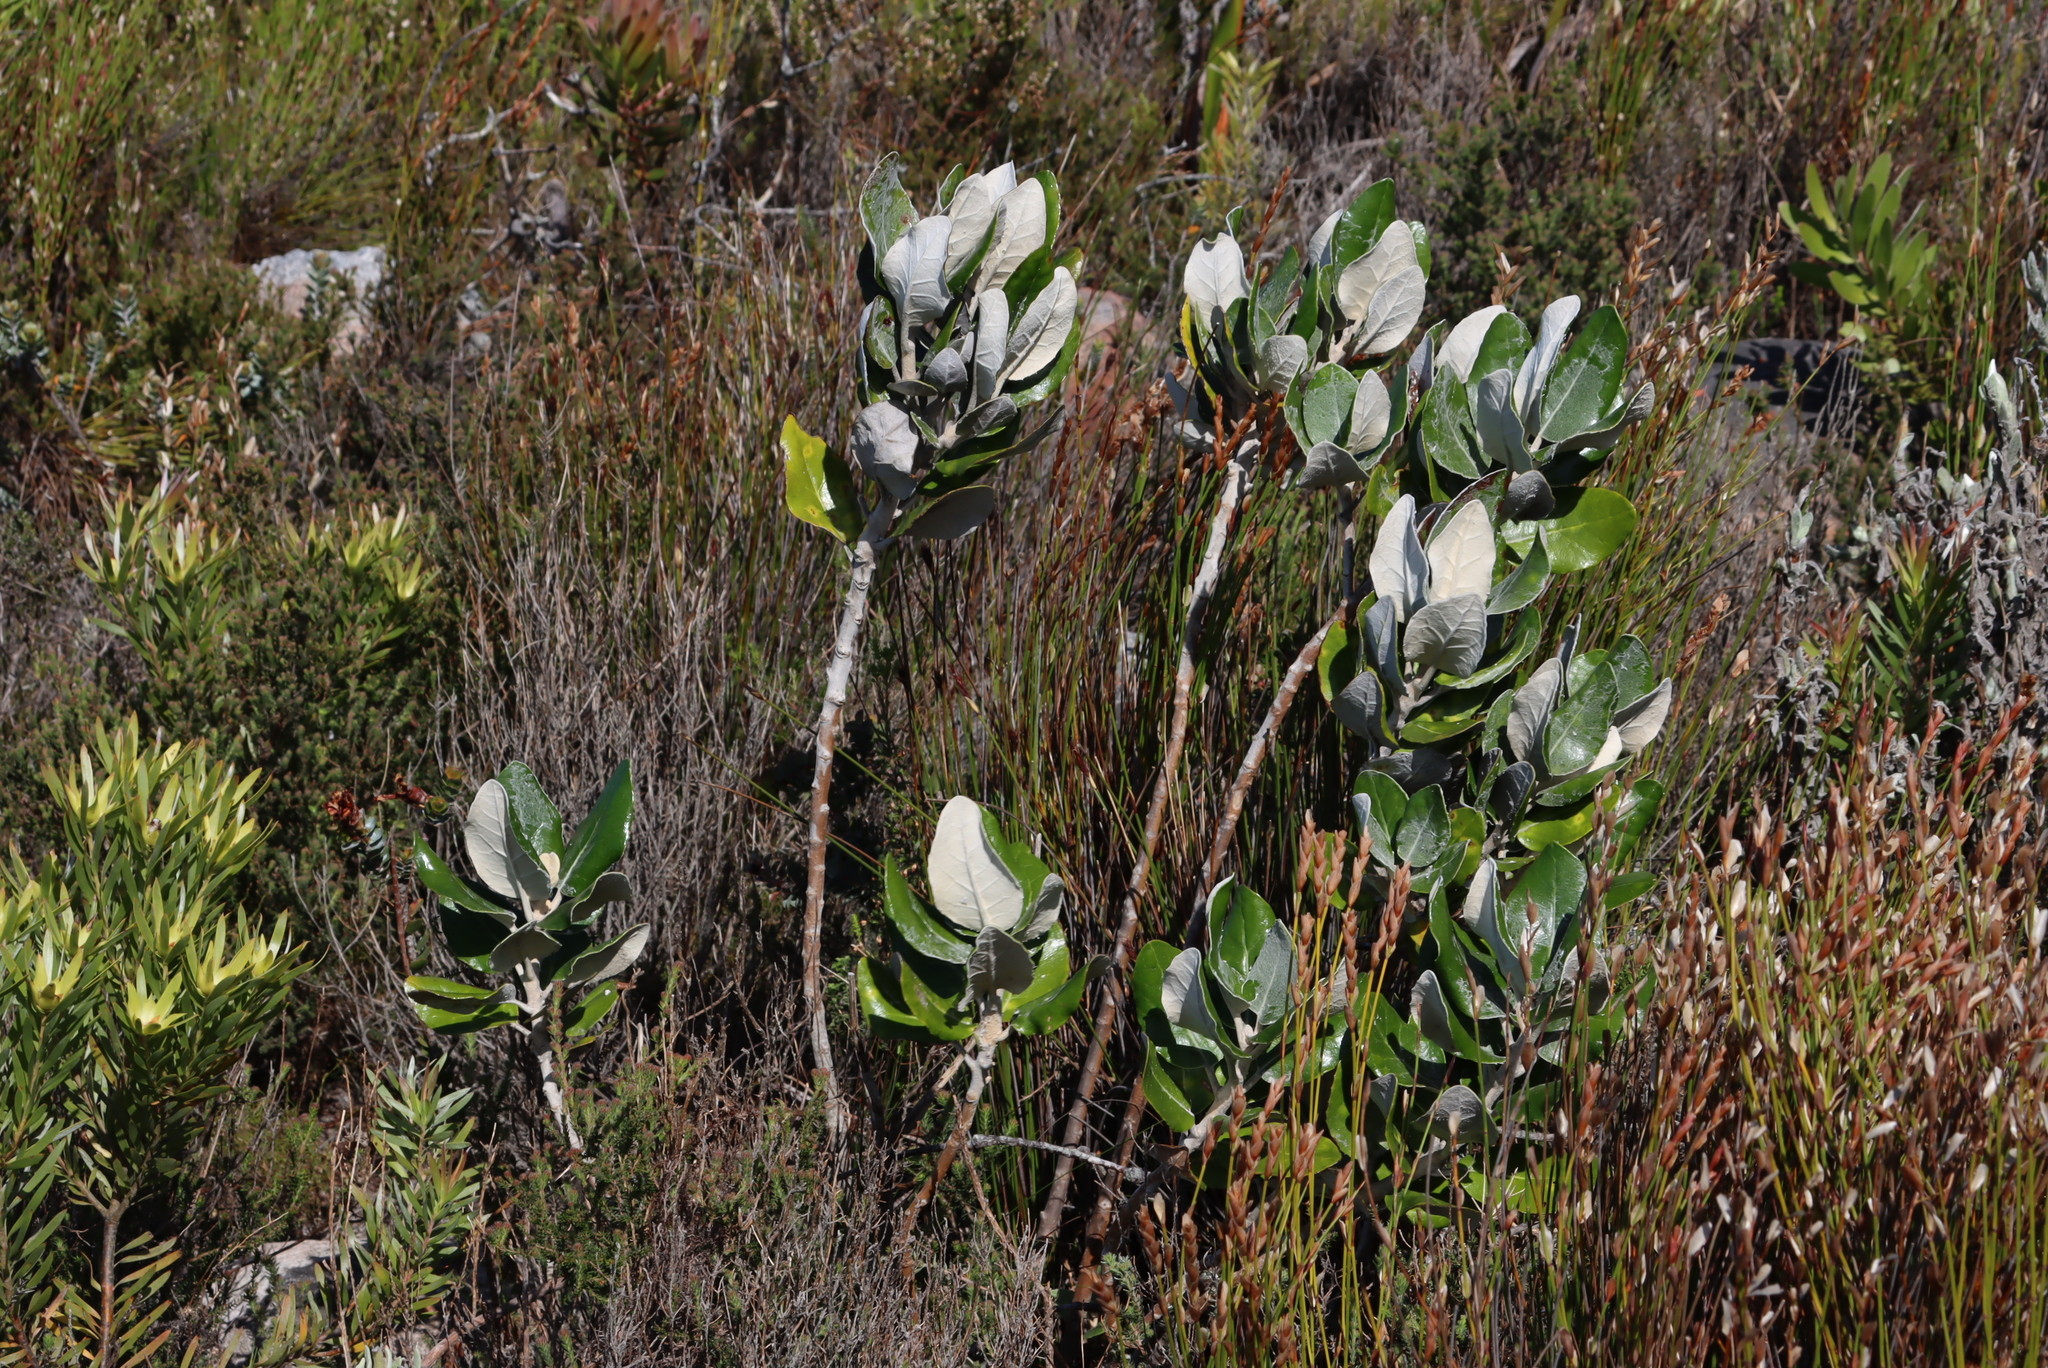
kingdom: Plantae
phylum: Tracheophyta
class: Magnoliopsida
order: Asterales
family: Asteraceae
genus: Capelio
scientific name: Capelio tabularis
